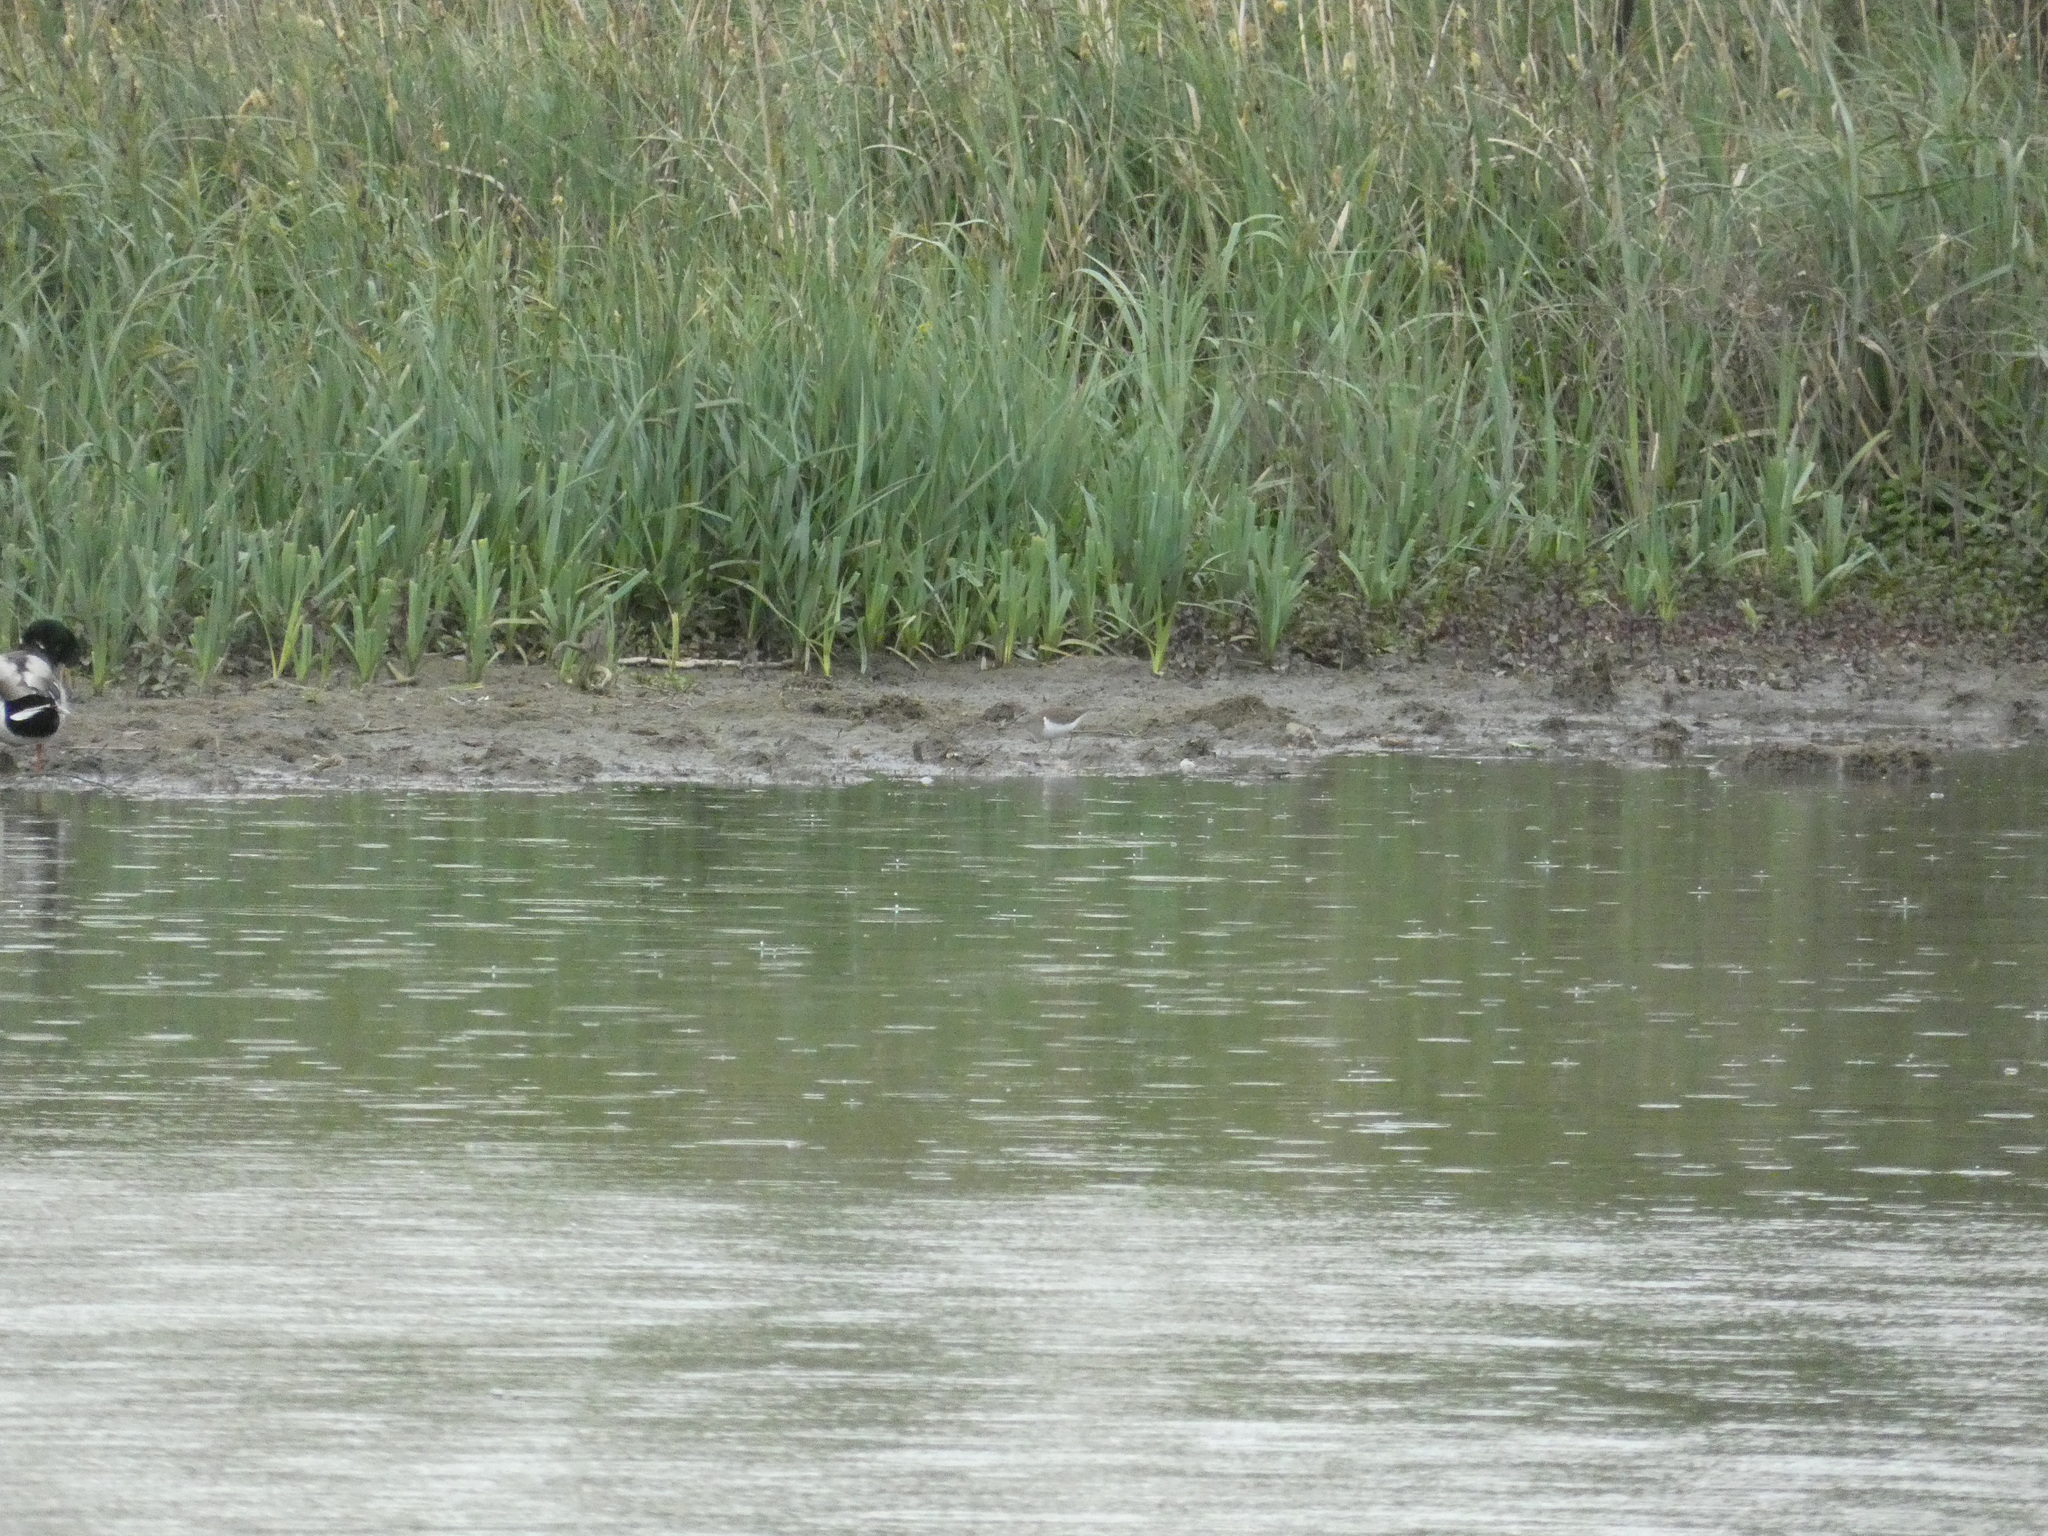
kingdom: Animalia
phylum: Chordata
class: Aves
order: Charadriiformes
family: Scolopacidae
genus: Actitis
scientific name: Actitis hypoleucos
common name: Common sandpiper
